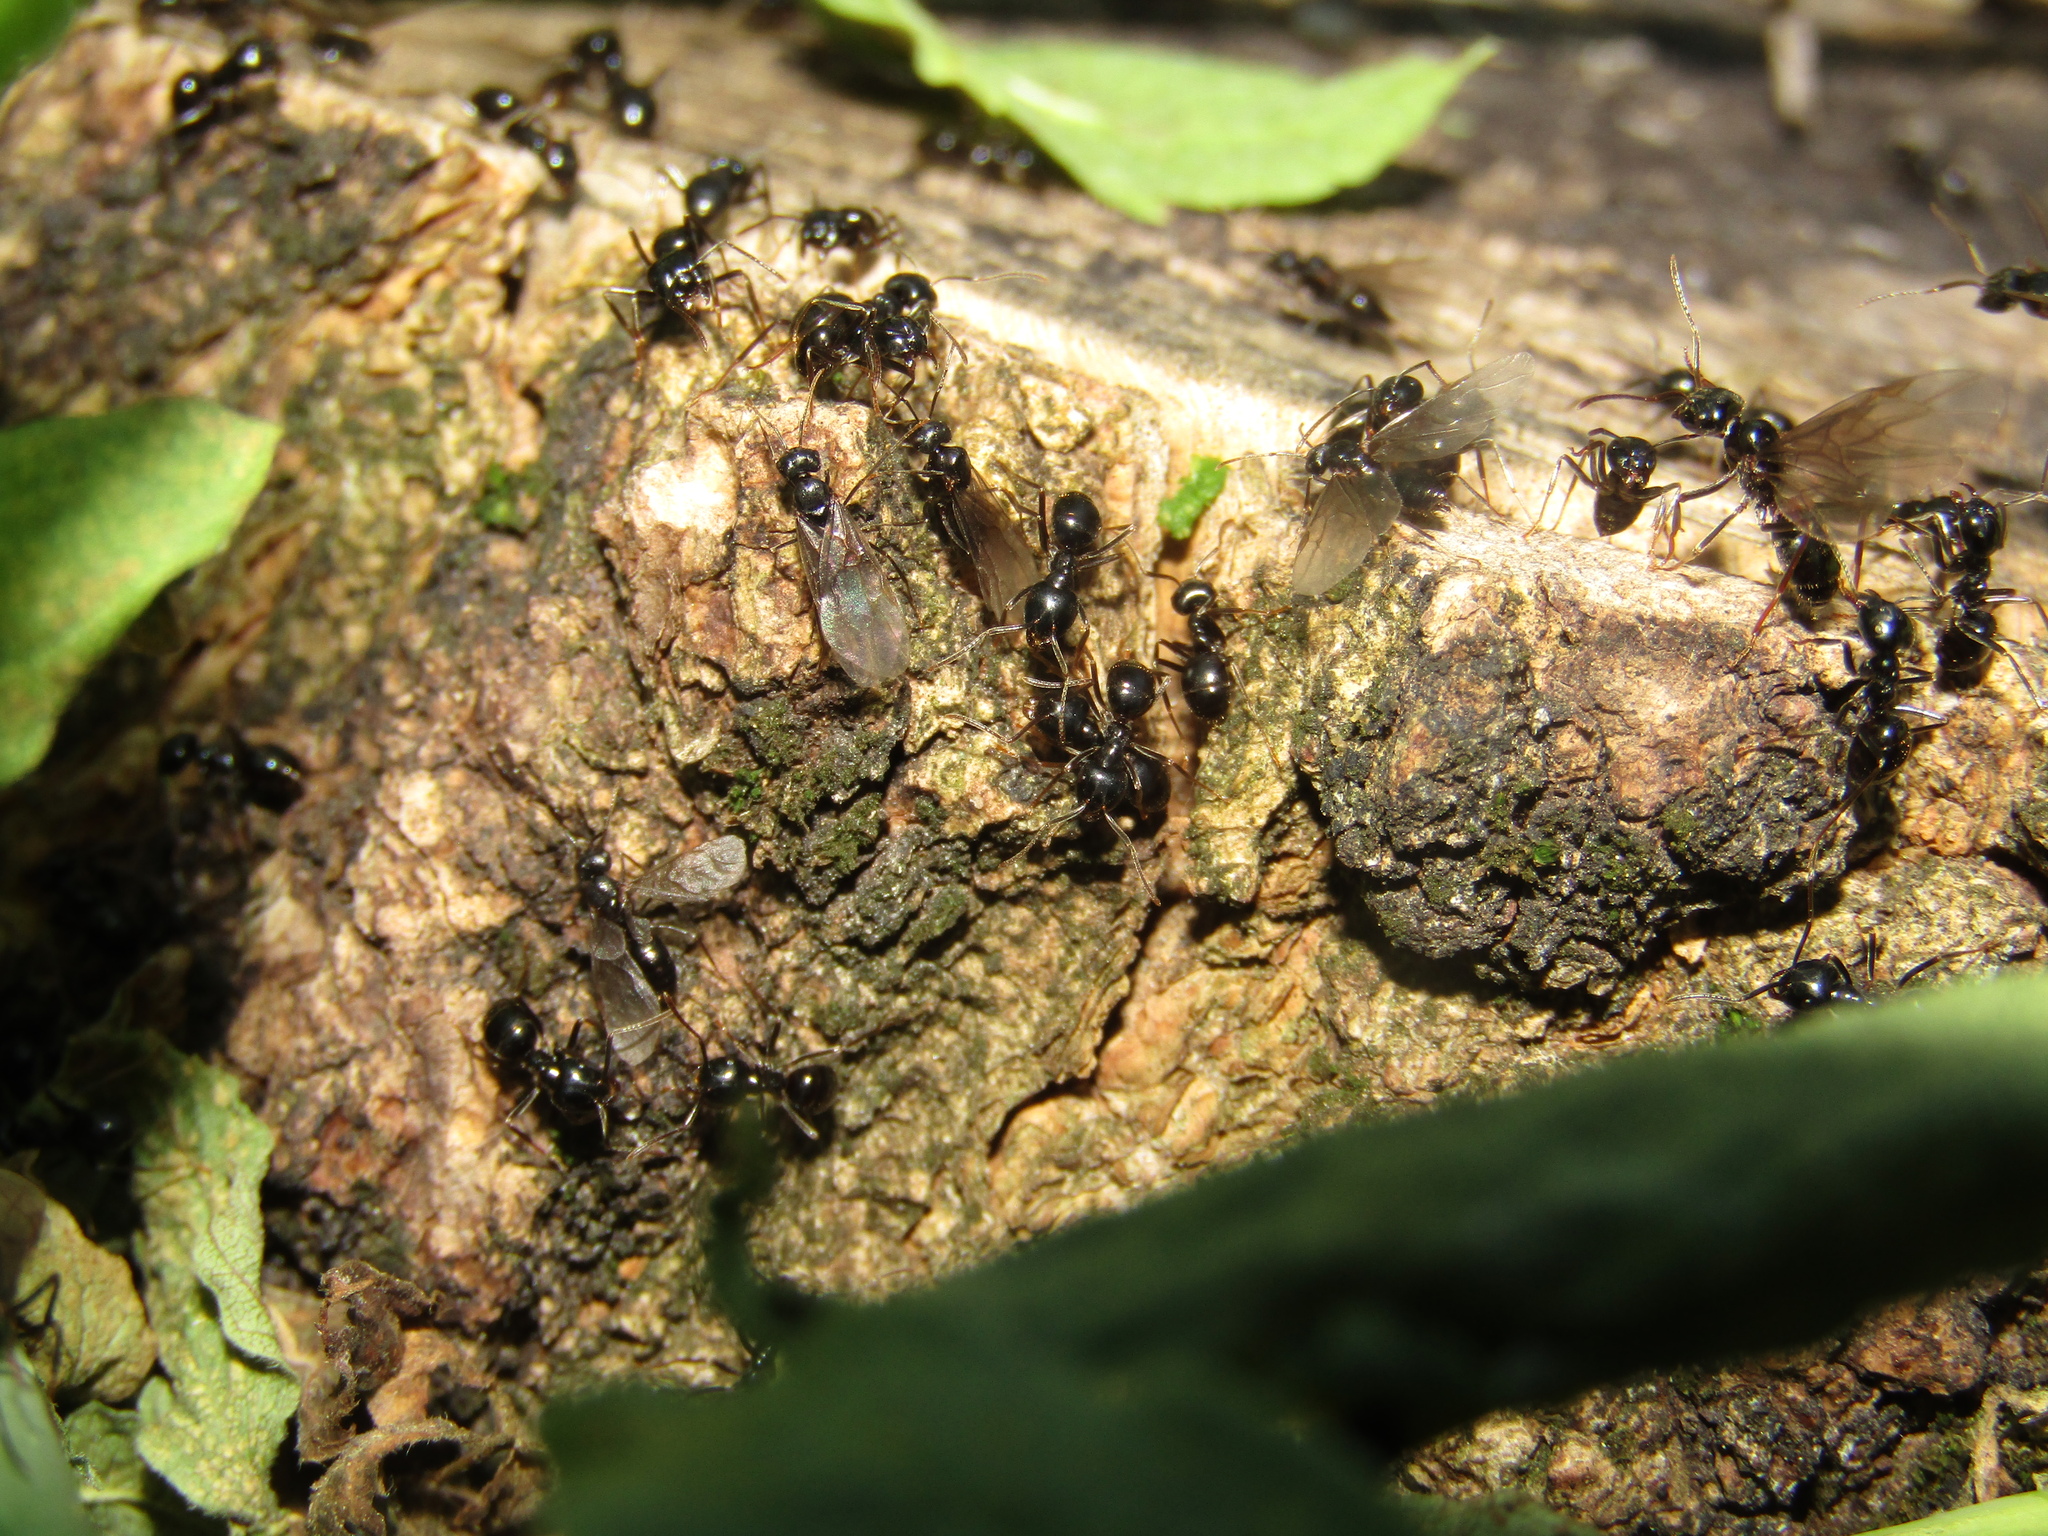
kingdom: Animalia
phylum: Arthropoda
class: Insecta
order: Hymenoptera
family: Formicidae
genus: Lasius
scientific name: Lasius fuliginosus
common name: Jet ant
